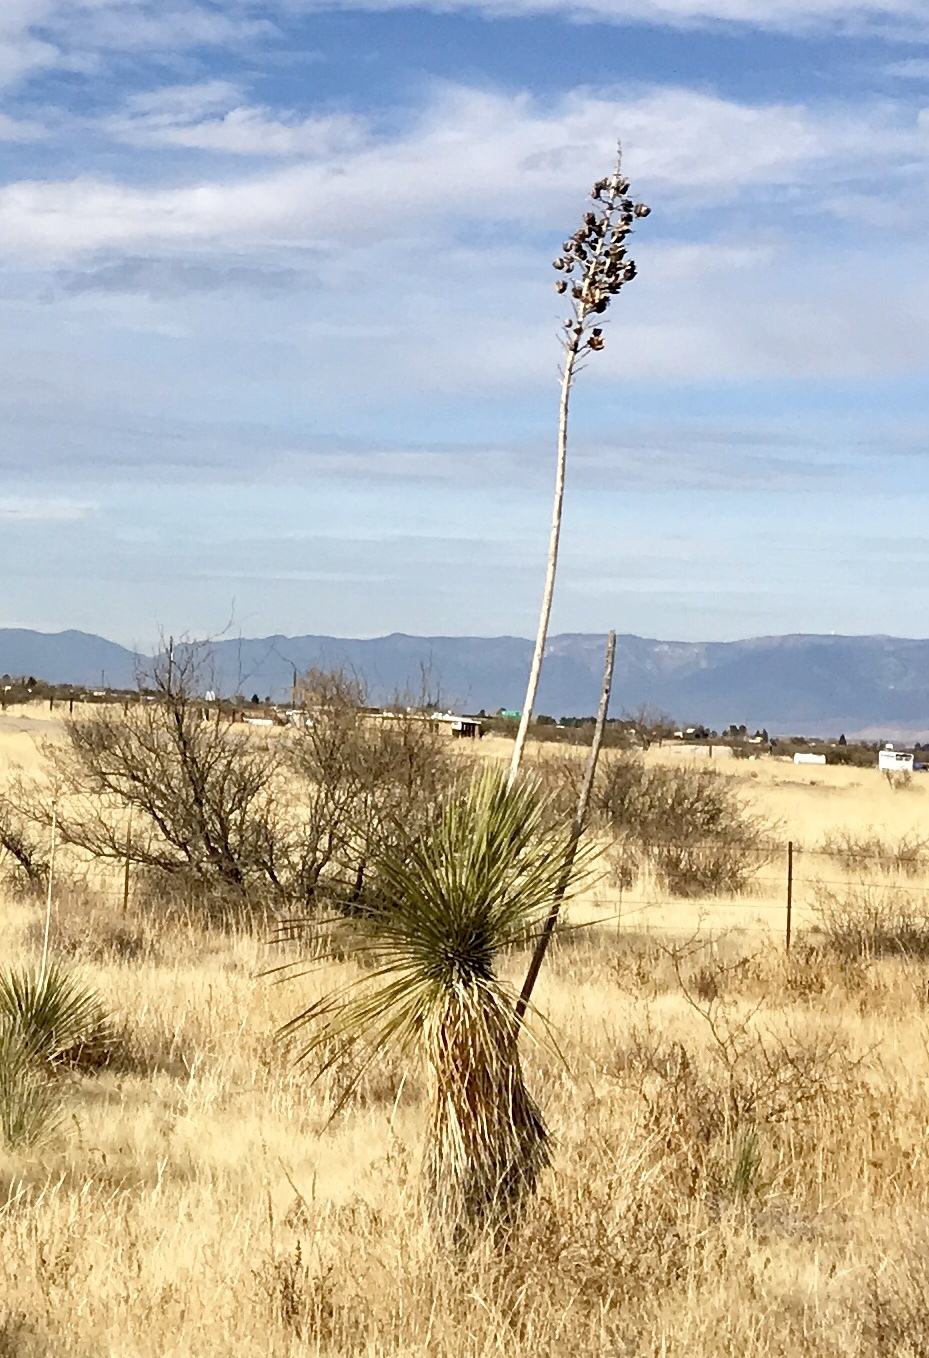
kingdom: Plantae
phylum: Tracheophyta
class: Liliopsida
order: Asparagales
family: Asparagaceae
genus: Yucca
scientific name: Yucca elata
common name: Palmella
